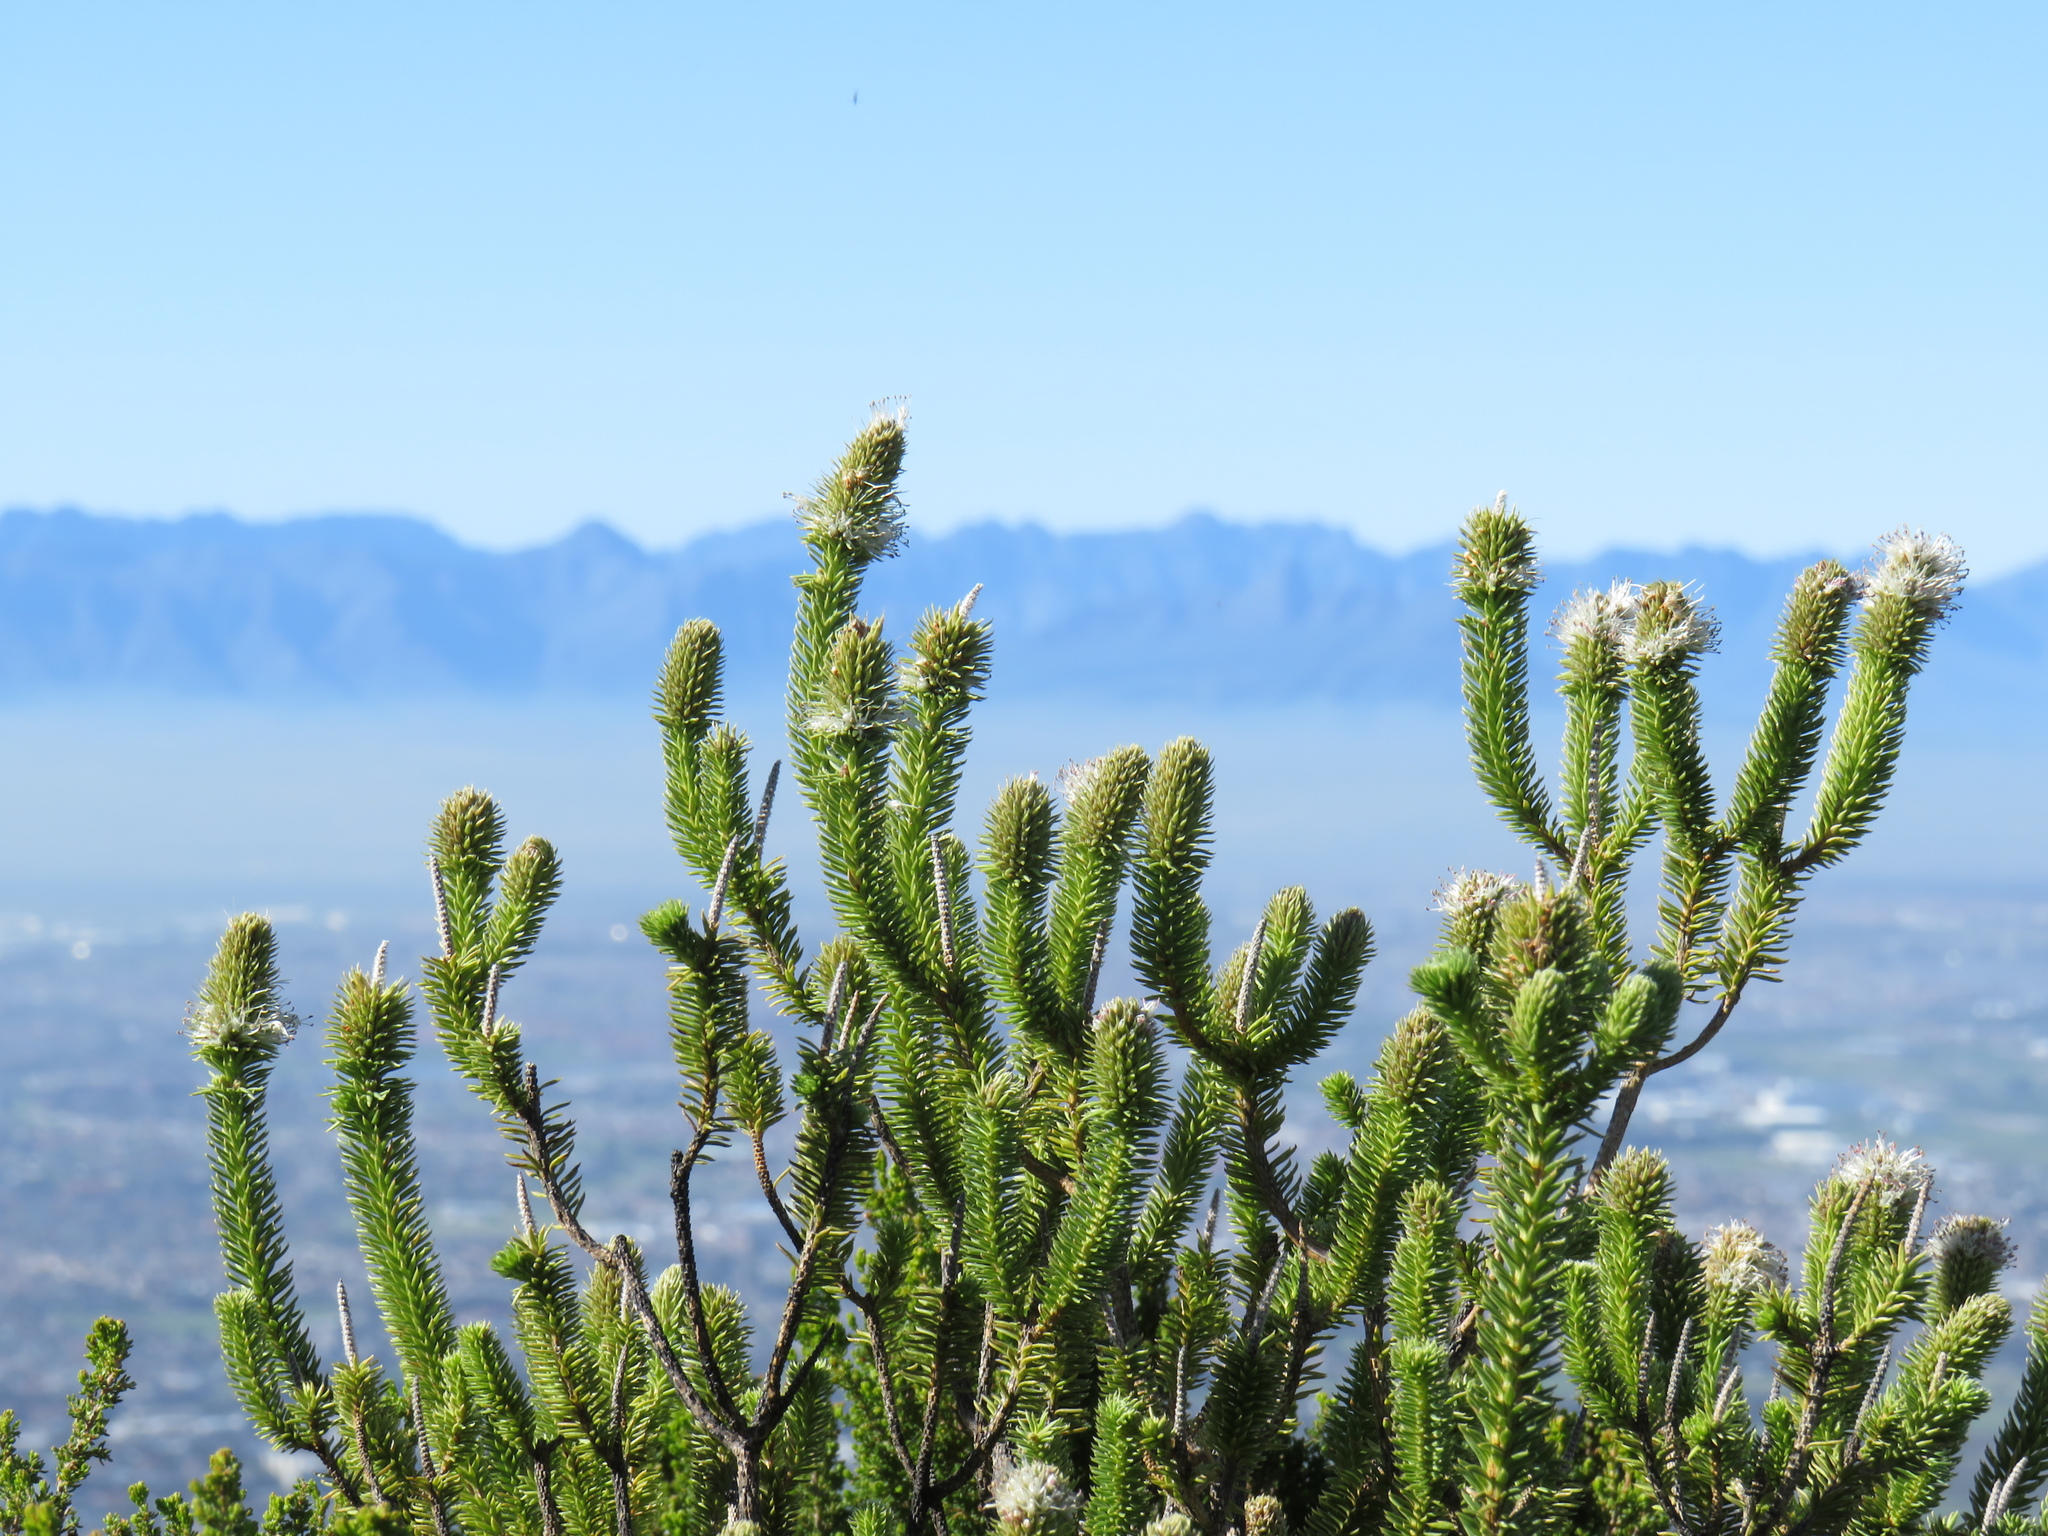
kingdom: Plantae
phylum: Tracheophyta
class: Magnoliopsida
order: Lamiales
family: Stilbaceae
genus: Stilbe
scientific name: Stilbe vestita
